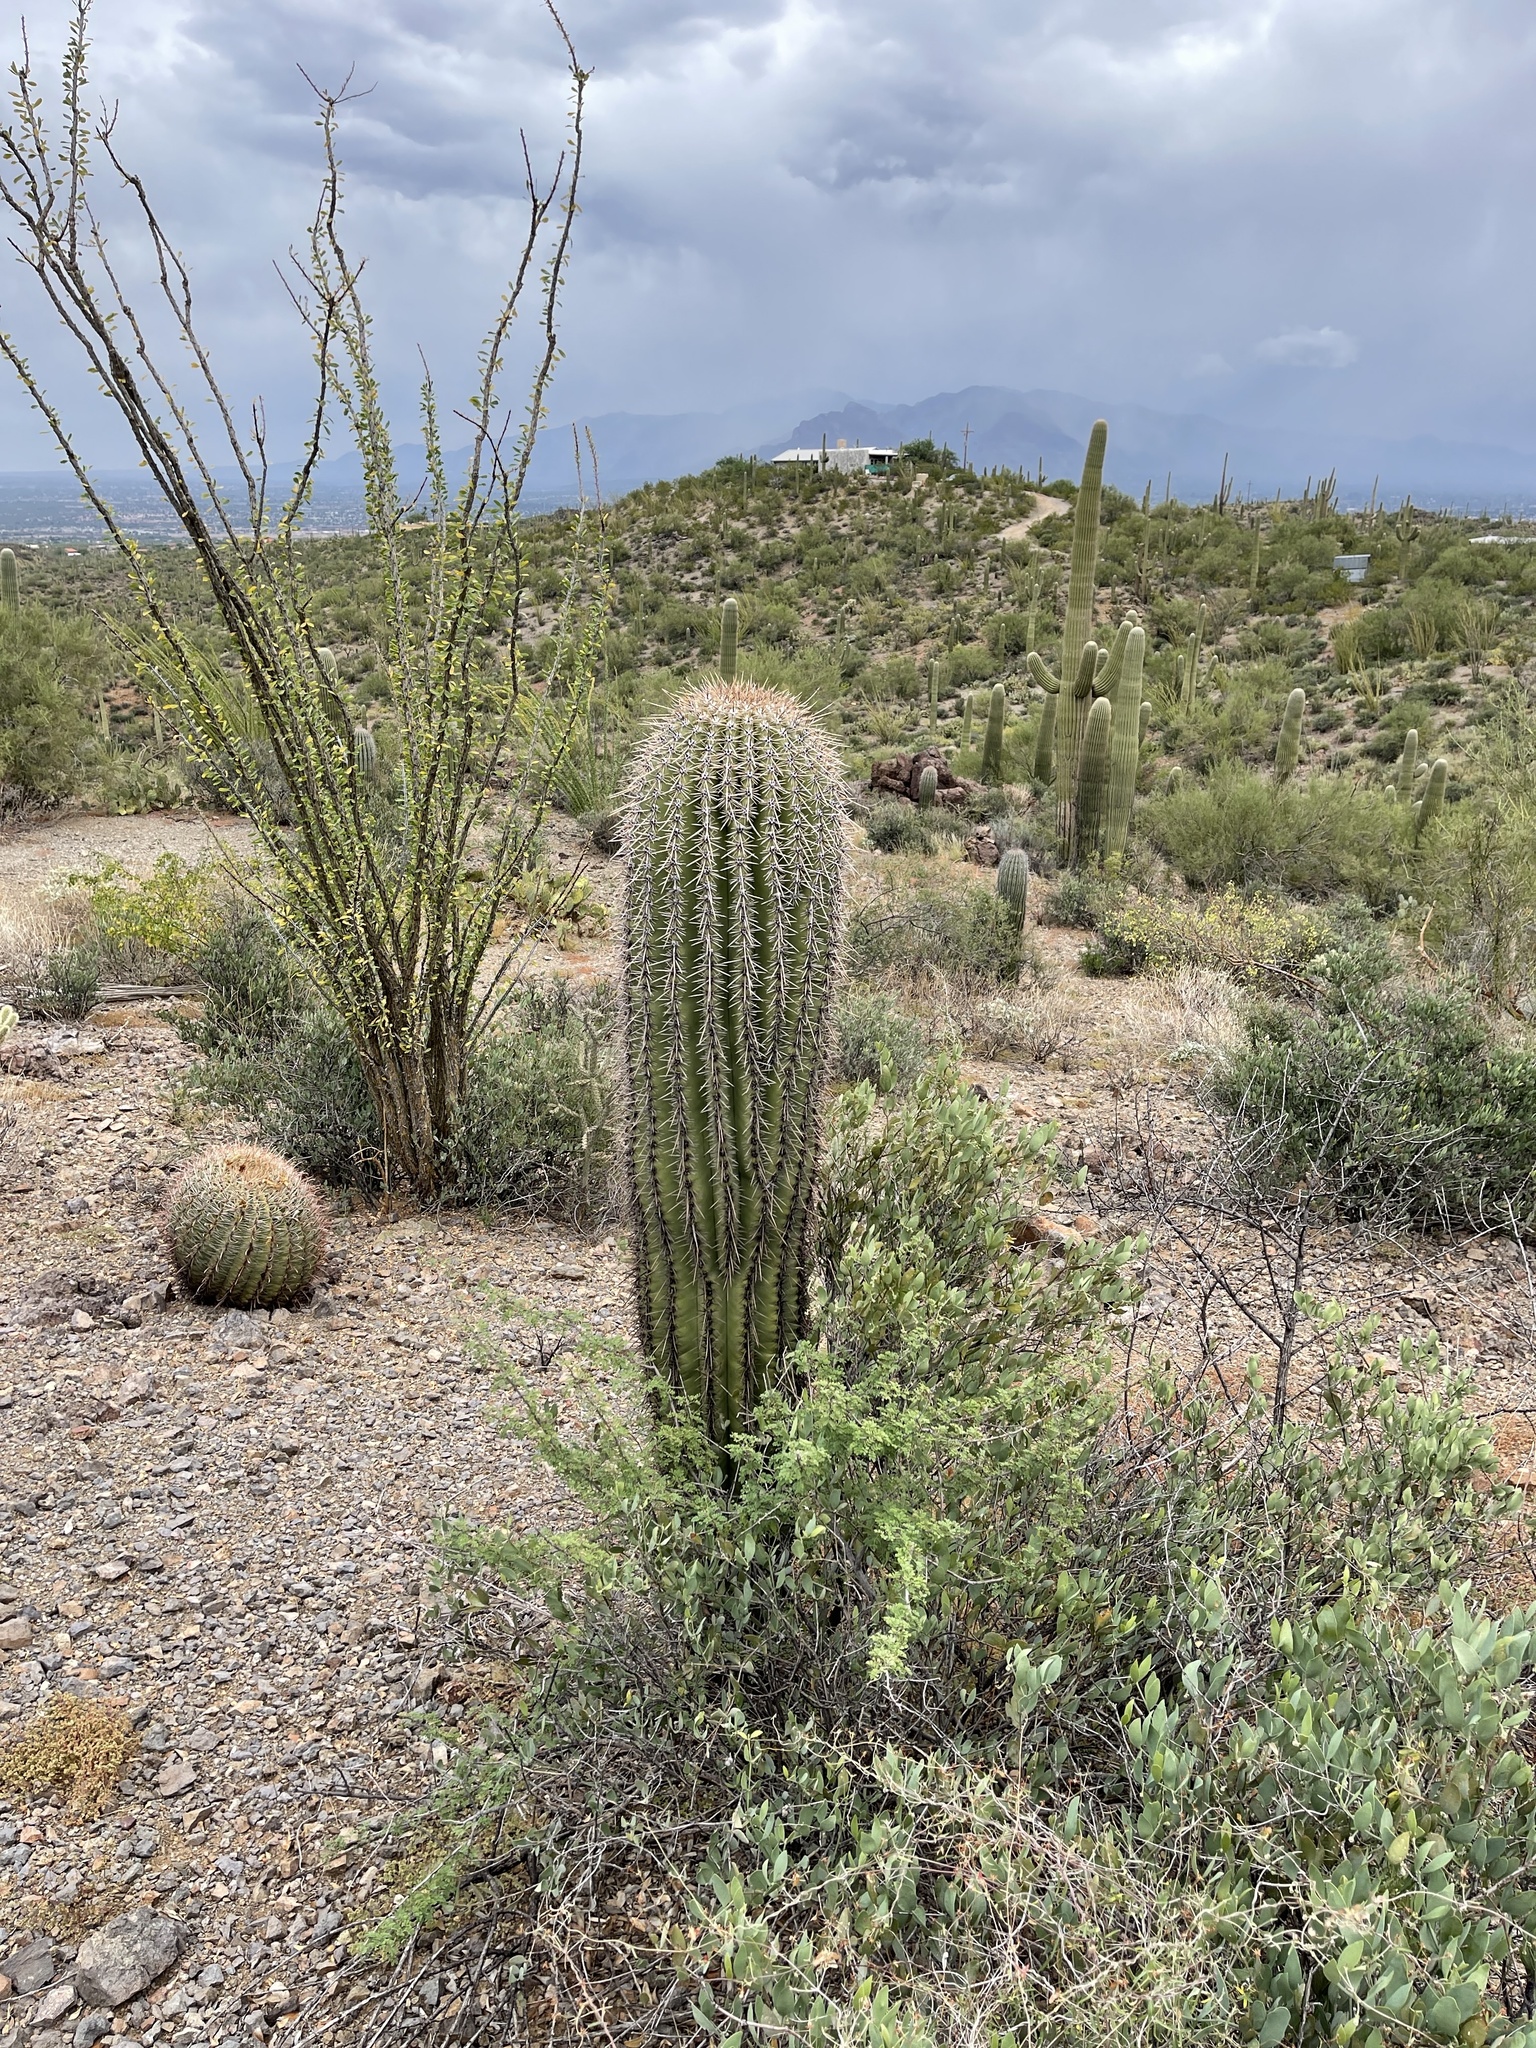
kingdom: Plantae
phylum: Tracheophyta
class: Magnoliopsida
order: Caryophyllales
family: Cactaceae
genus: Carnegiea
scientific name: Carnegiea gigantea
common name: Saguaro
